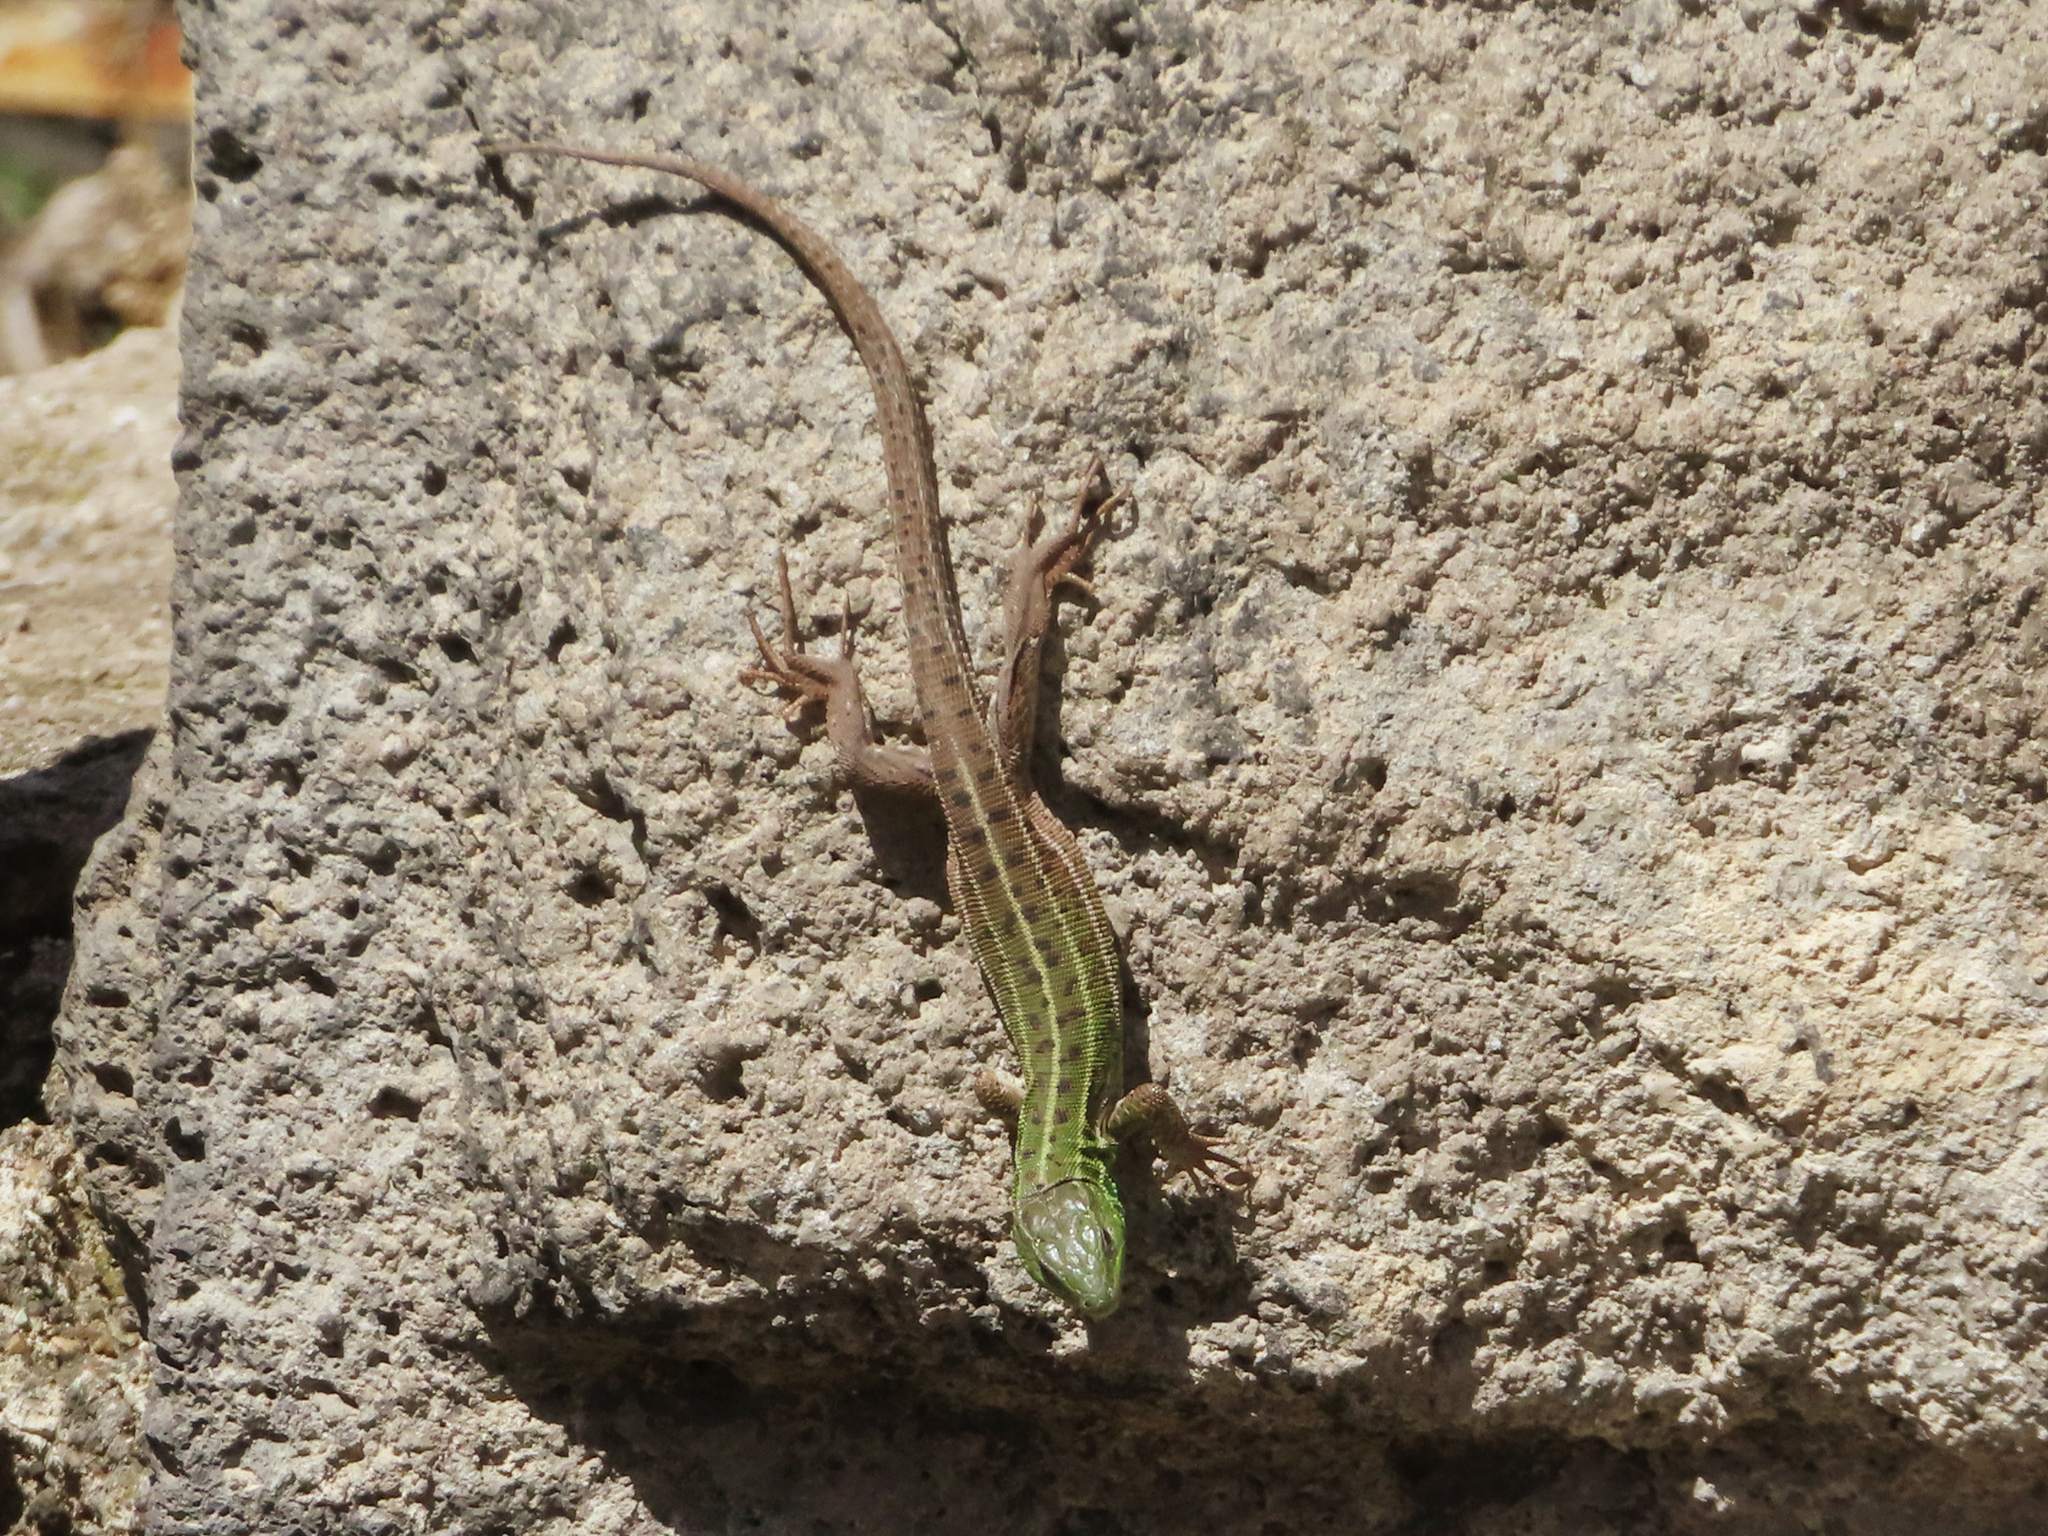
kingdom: Animalia
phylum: Chordata
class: Squamata
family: Lacertidae
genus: Lacerta
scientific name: Lacerta strigata
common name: Caspian green lizard
